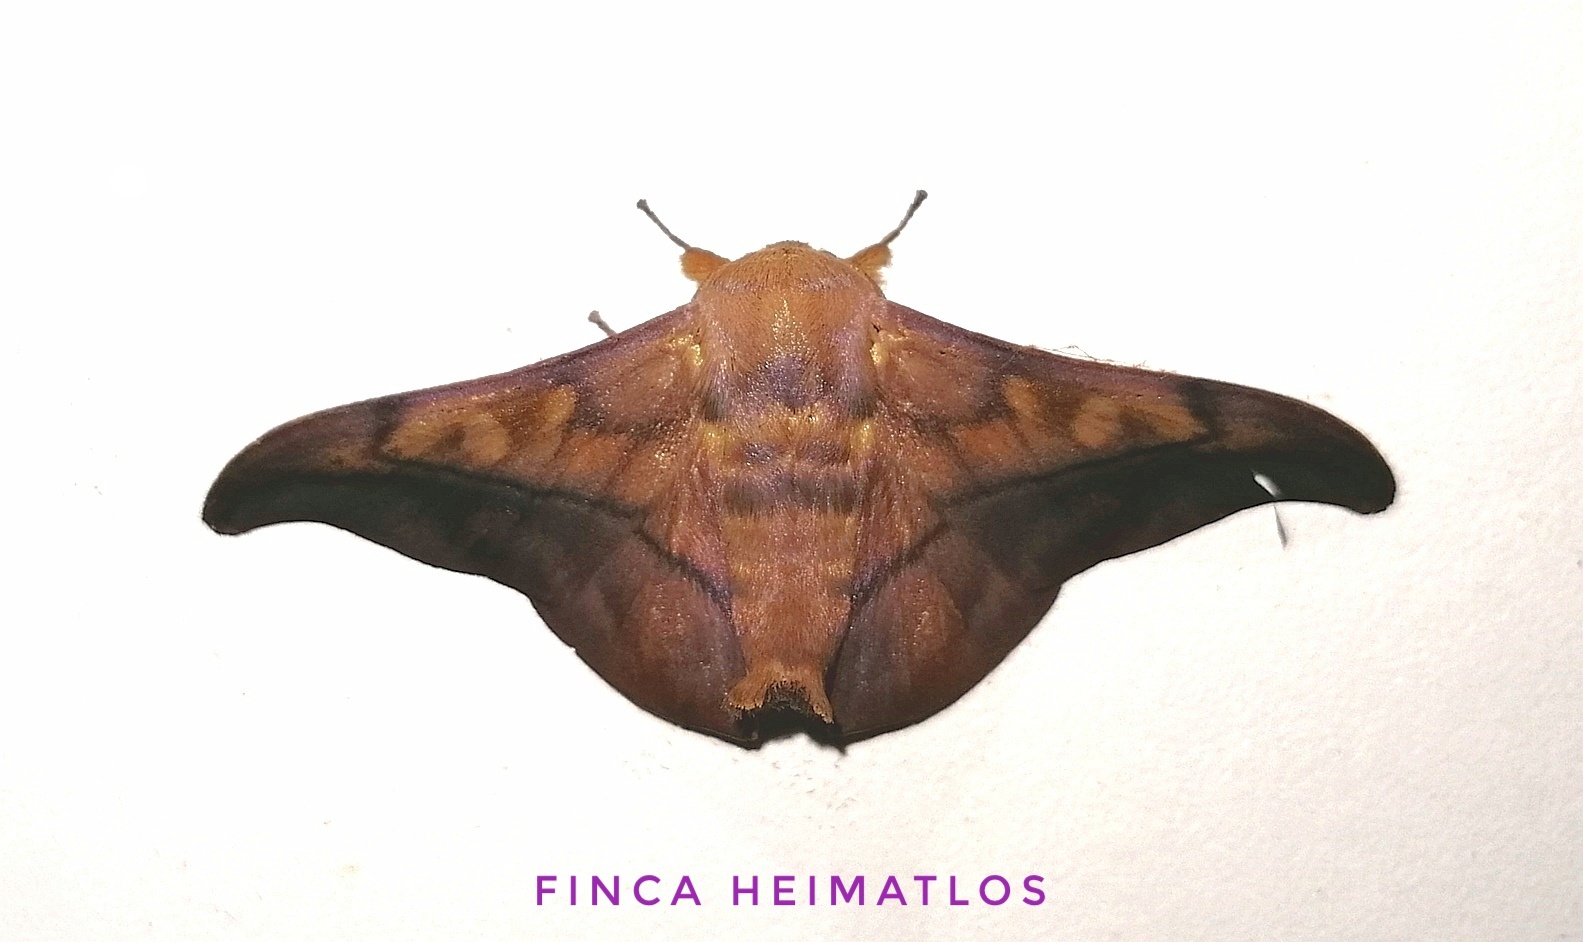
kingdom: Animalia
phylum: Arthropoda
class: Insecta
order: Lepidoptera
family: Mimallonidae
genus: Cicinnus
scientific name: Cicinnus anysia
